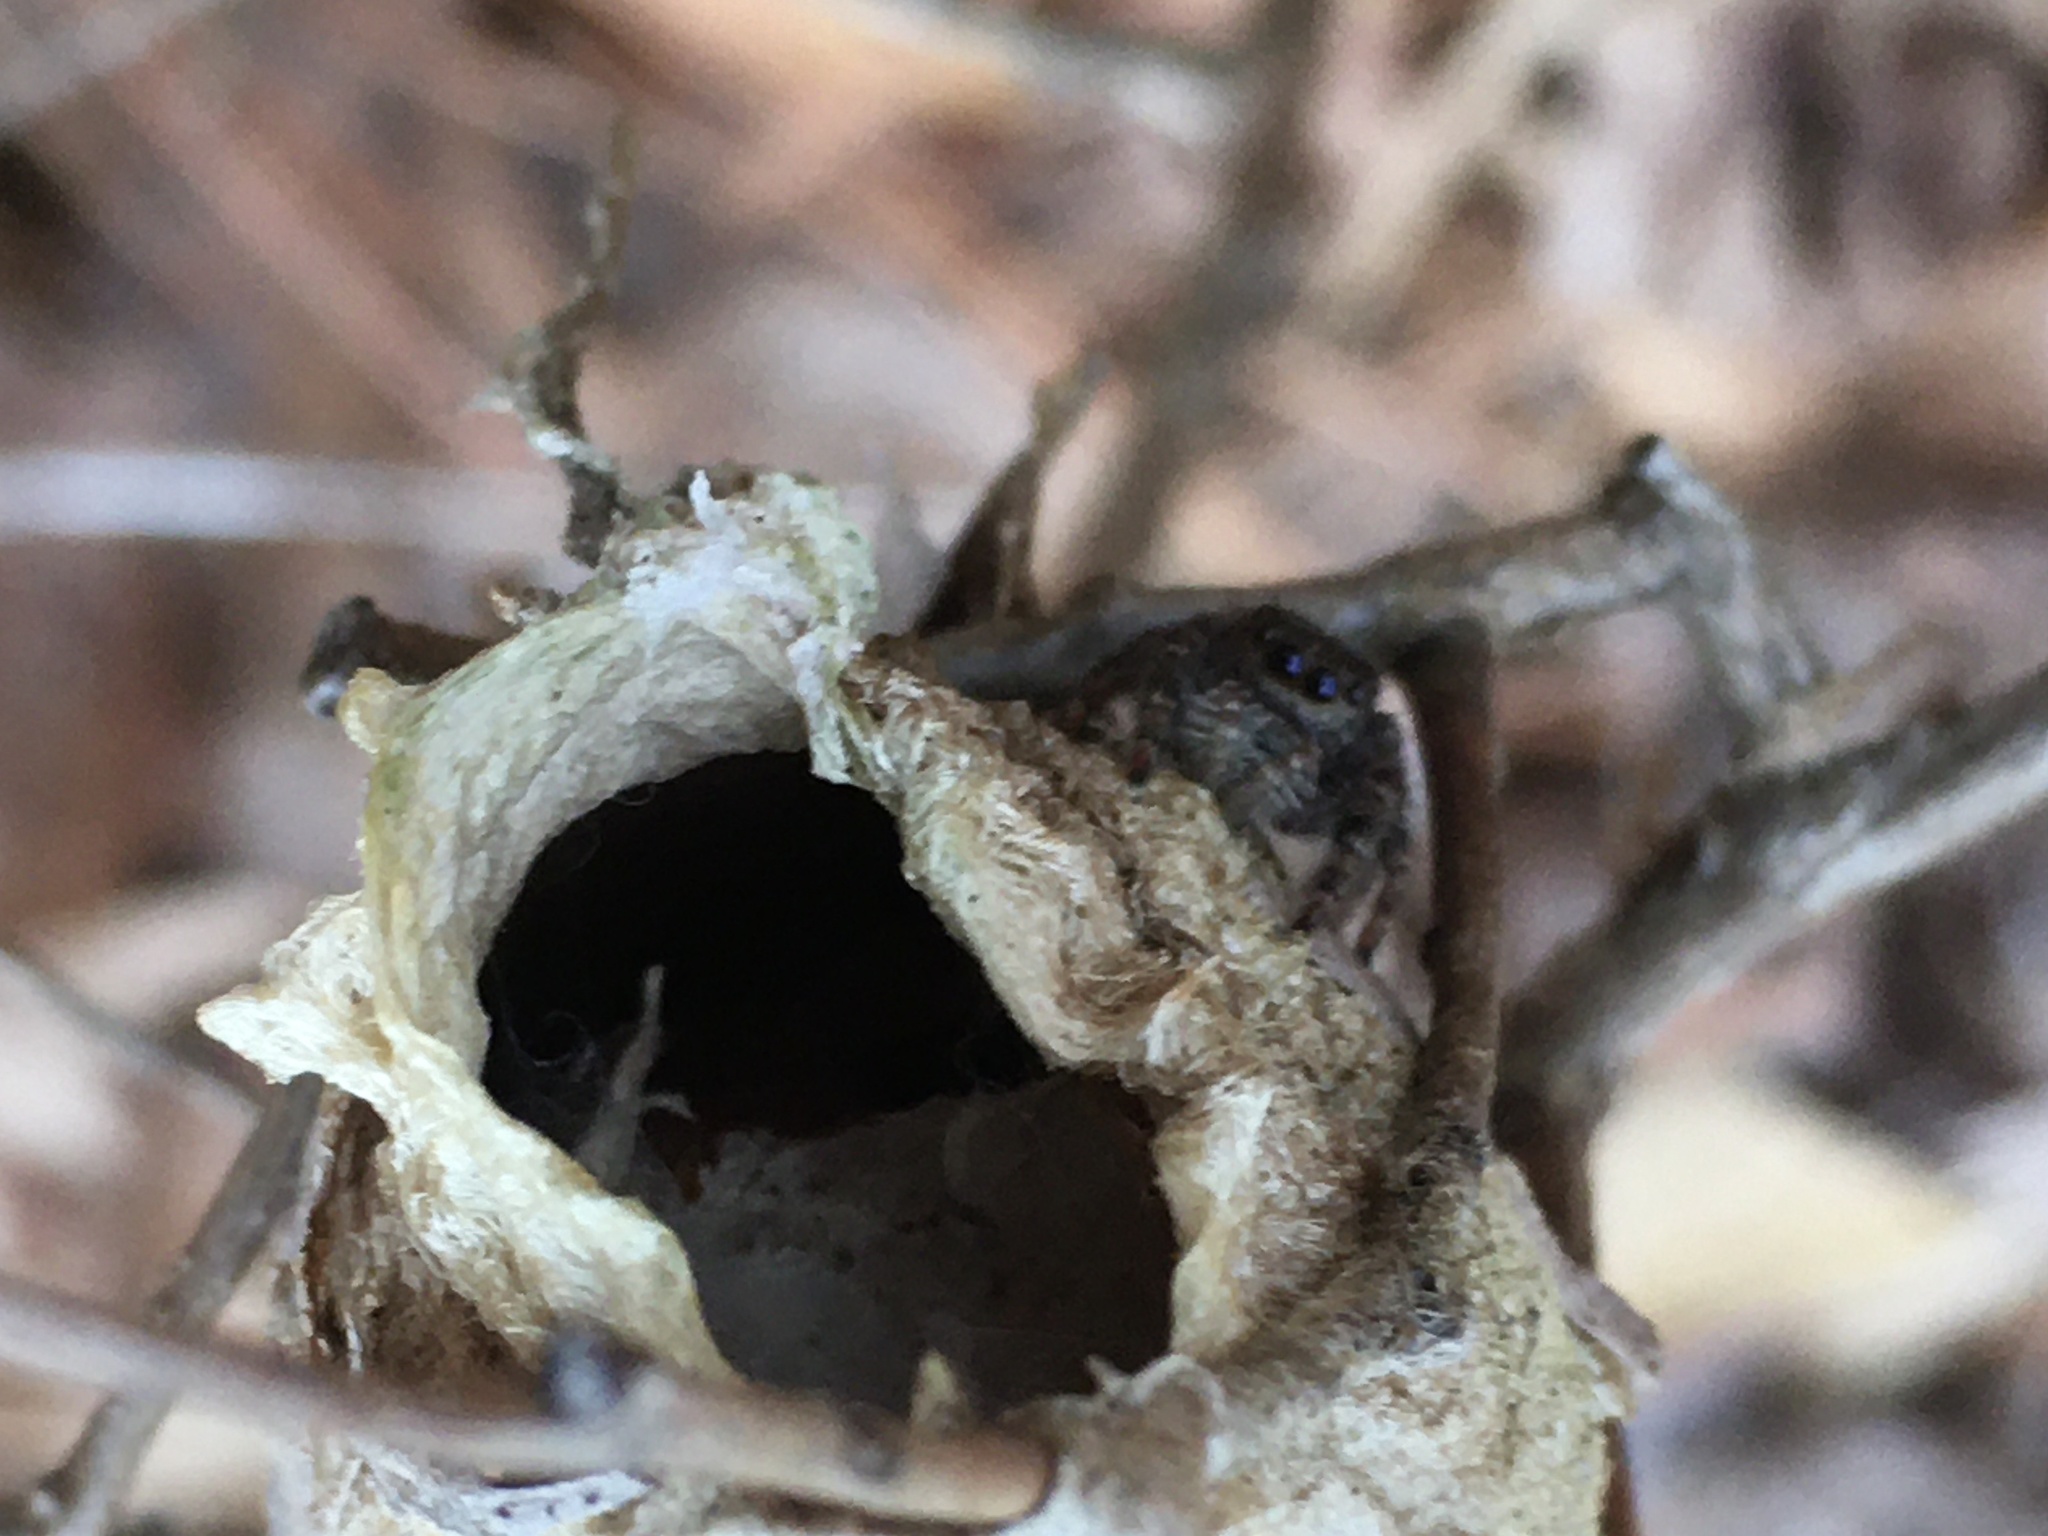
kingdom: Animalia
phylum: Arthropoda
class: Insecta
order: Lepidoptera
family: Saturniidae
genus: Antheraea
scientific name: Antheraea polyphemus
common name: Polyphemus moth
